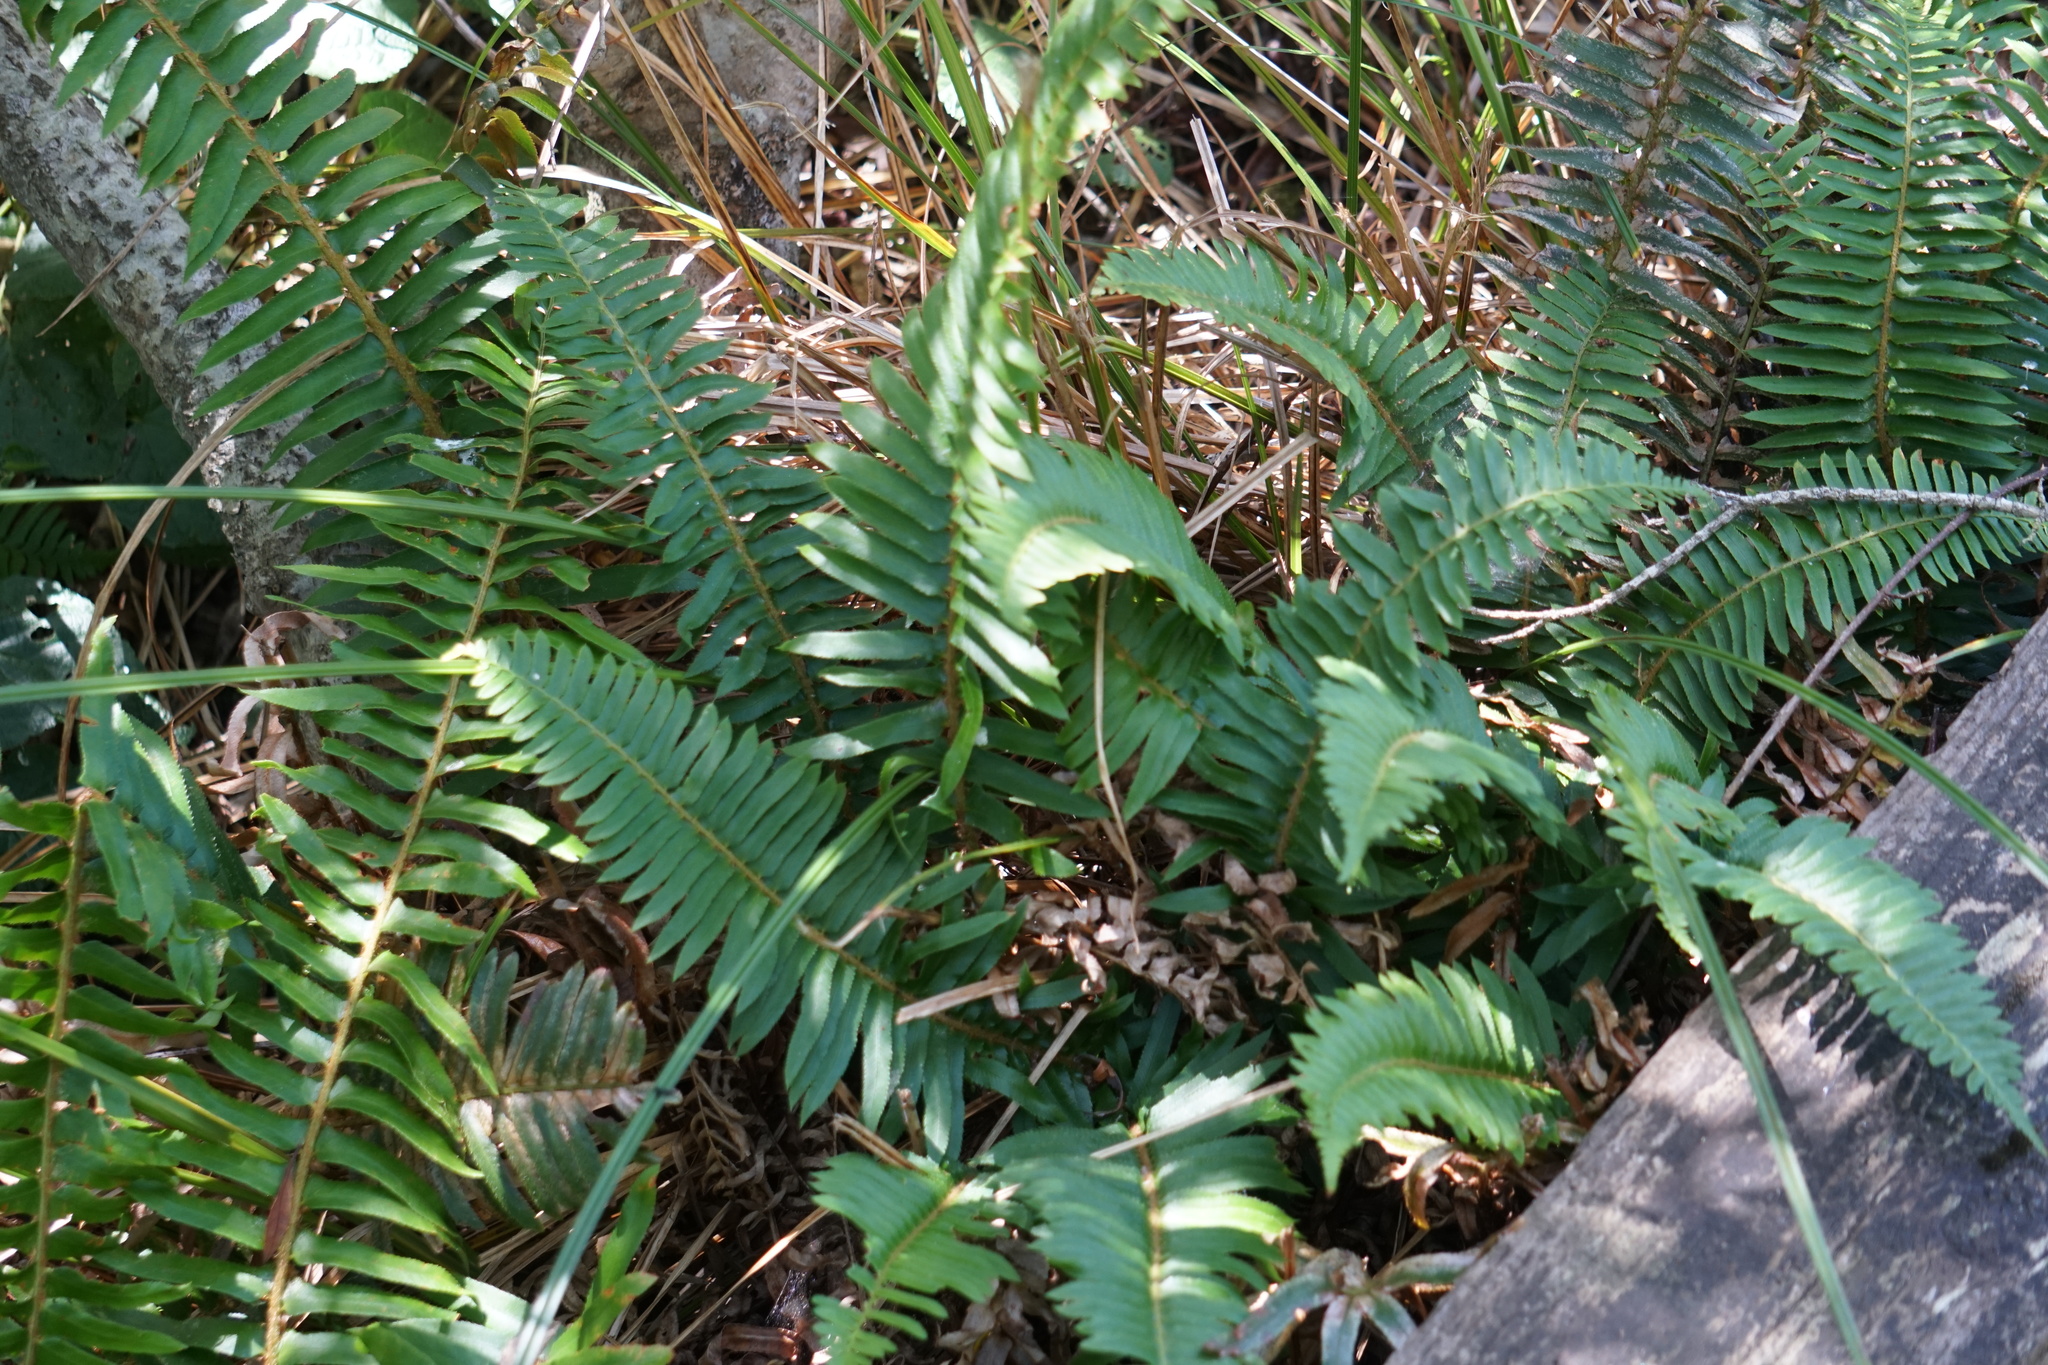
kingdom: Plantae
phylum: Tracheophyta
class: Polypodiopsida
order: Polypodiales
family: Dryopteridaceae
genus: Polystichum
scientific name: Polystichum munitum
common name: Western sword-fern
